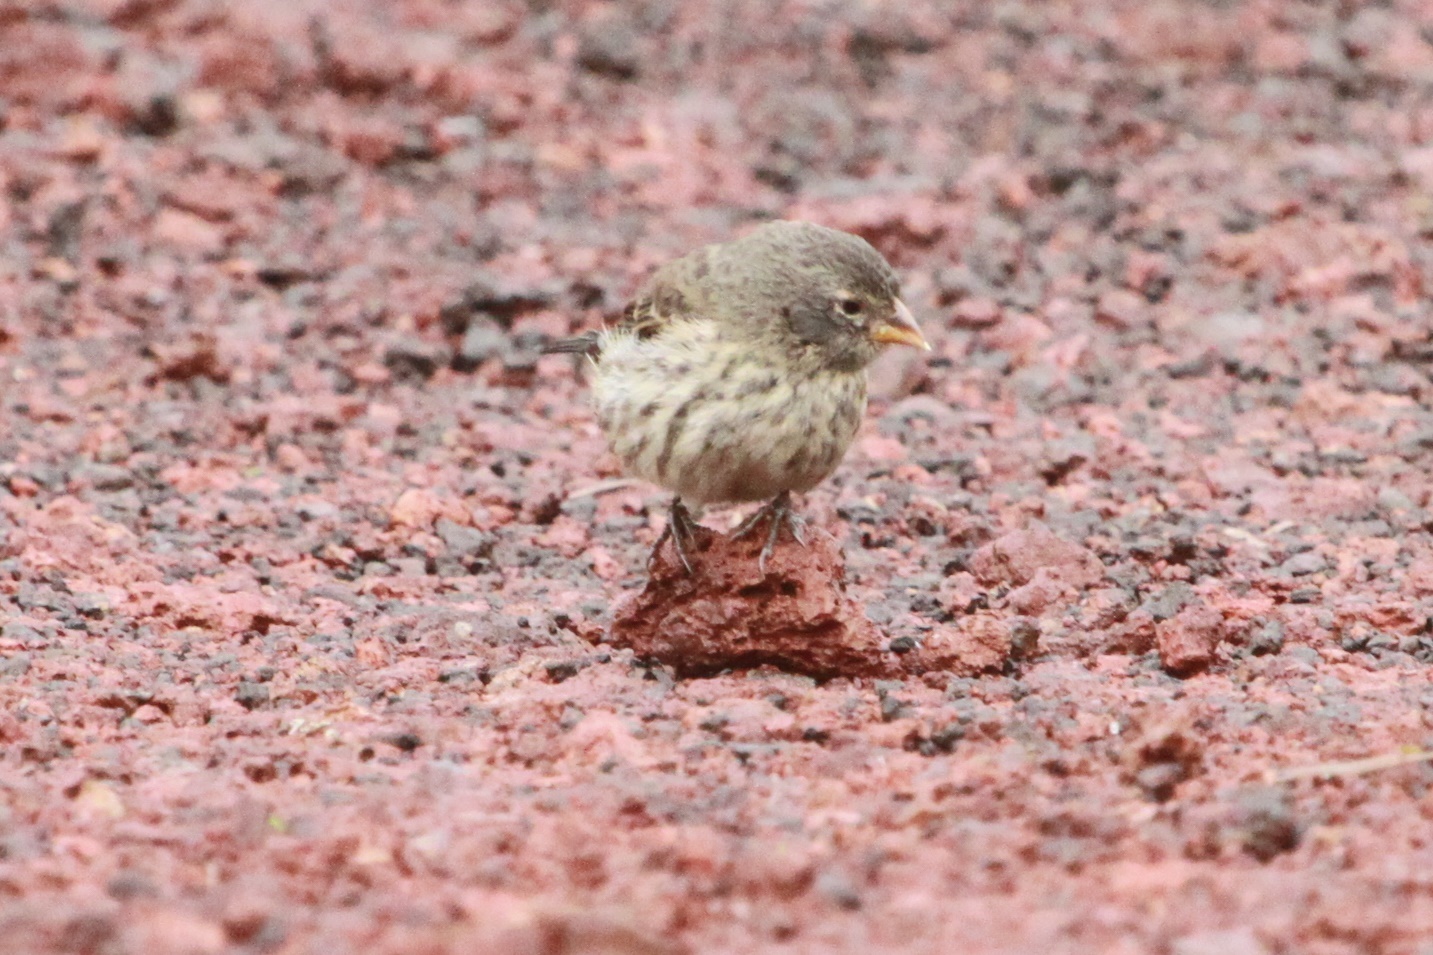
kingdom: Animalia
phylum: Chordata
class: Aves
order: Passeriformes
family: Thraupidae
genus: Geospiza
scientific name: Geospiza fuliginosa
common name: Small ground finch
